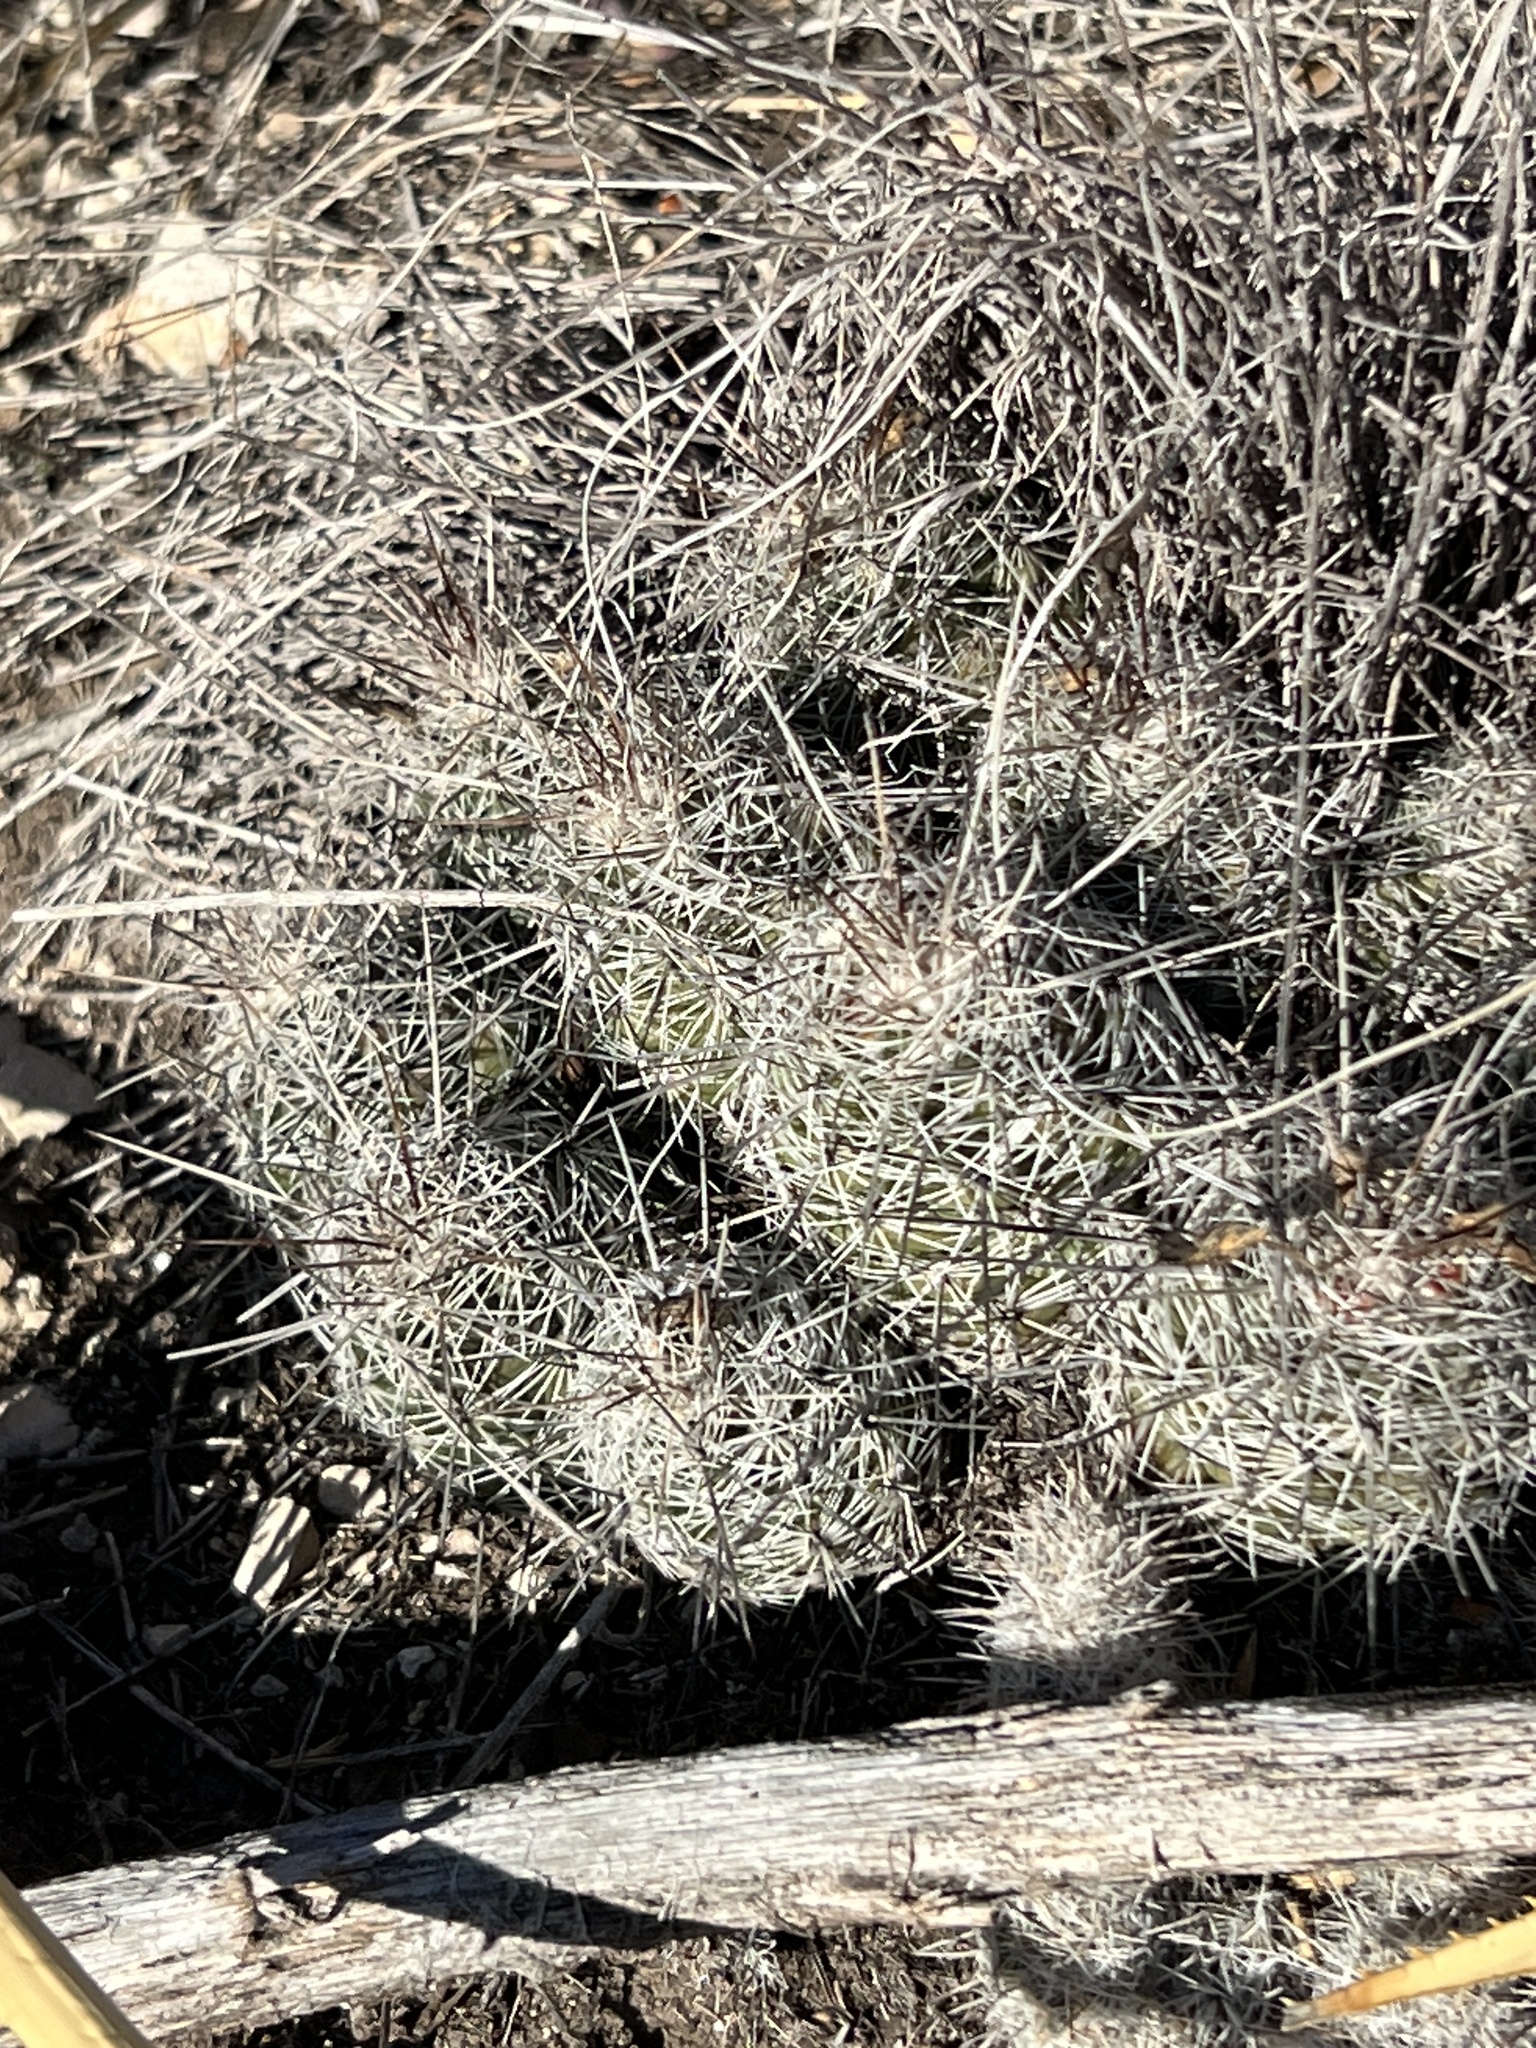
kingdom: Plantae
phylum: Tracheophyta
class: Magnoliopsida
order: Caryophyllales
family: Cactaceae
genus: Cochemiea
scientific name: Cochemiea conoidea
